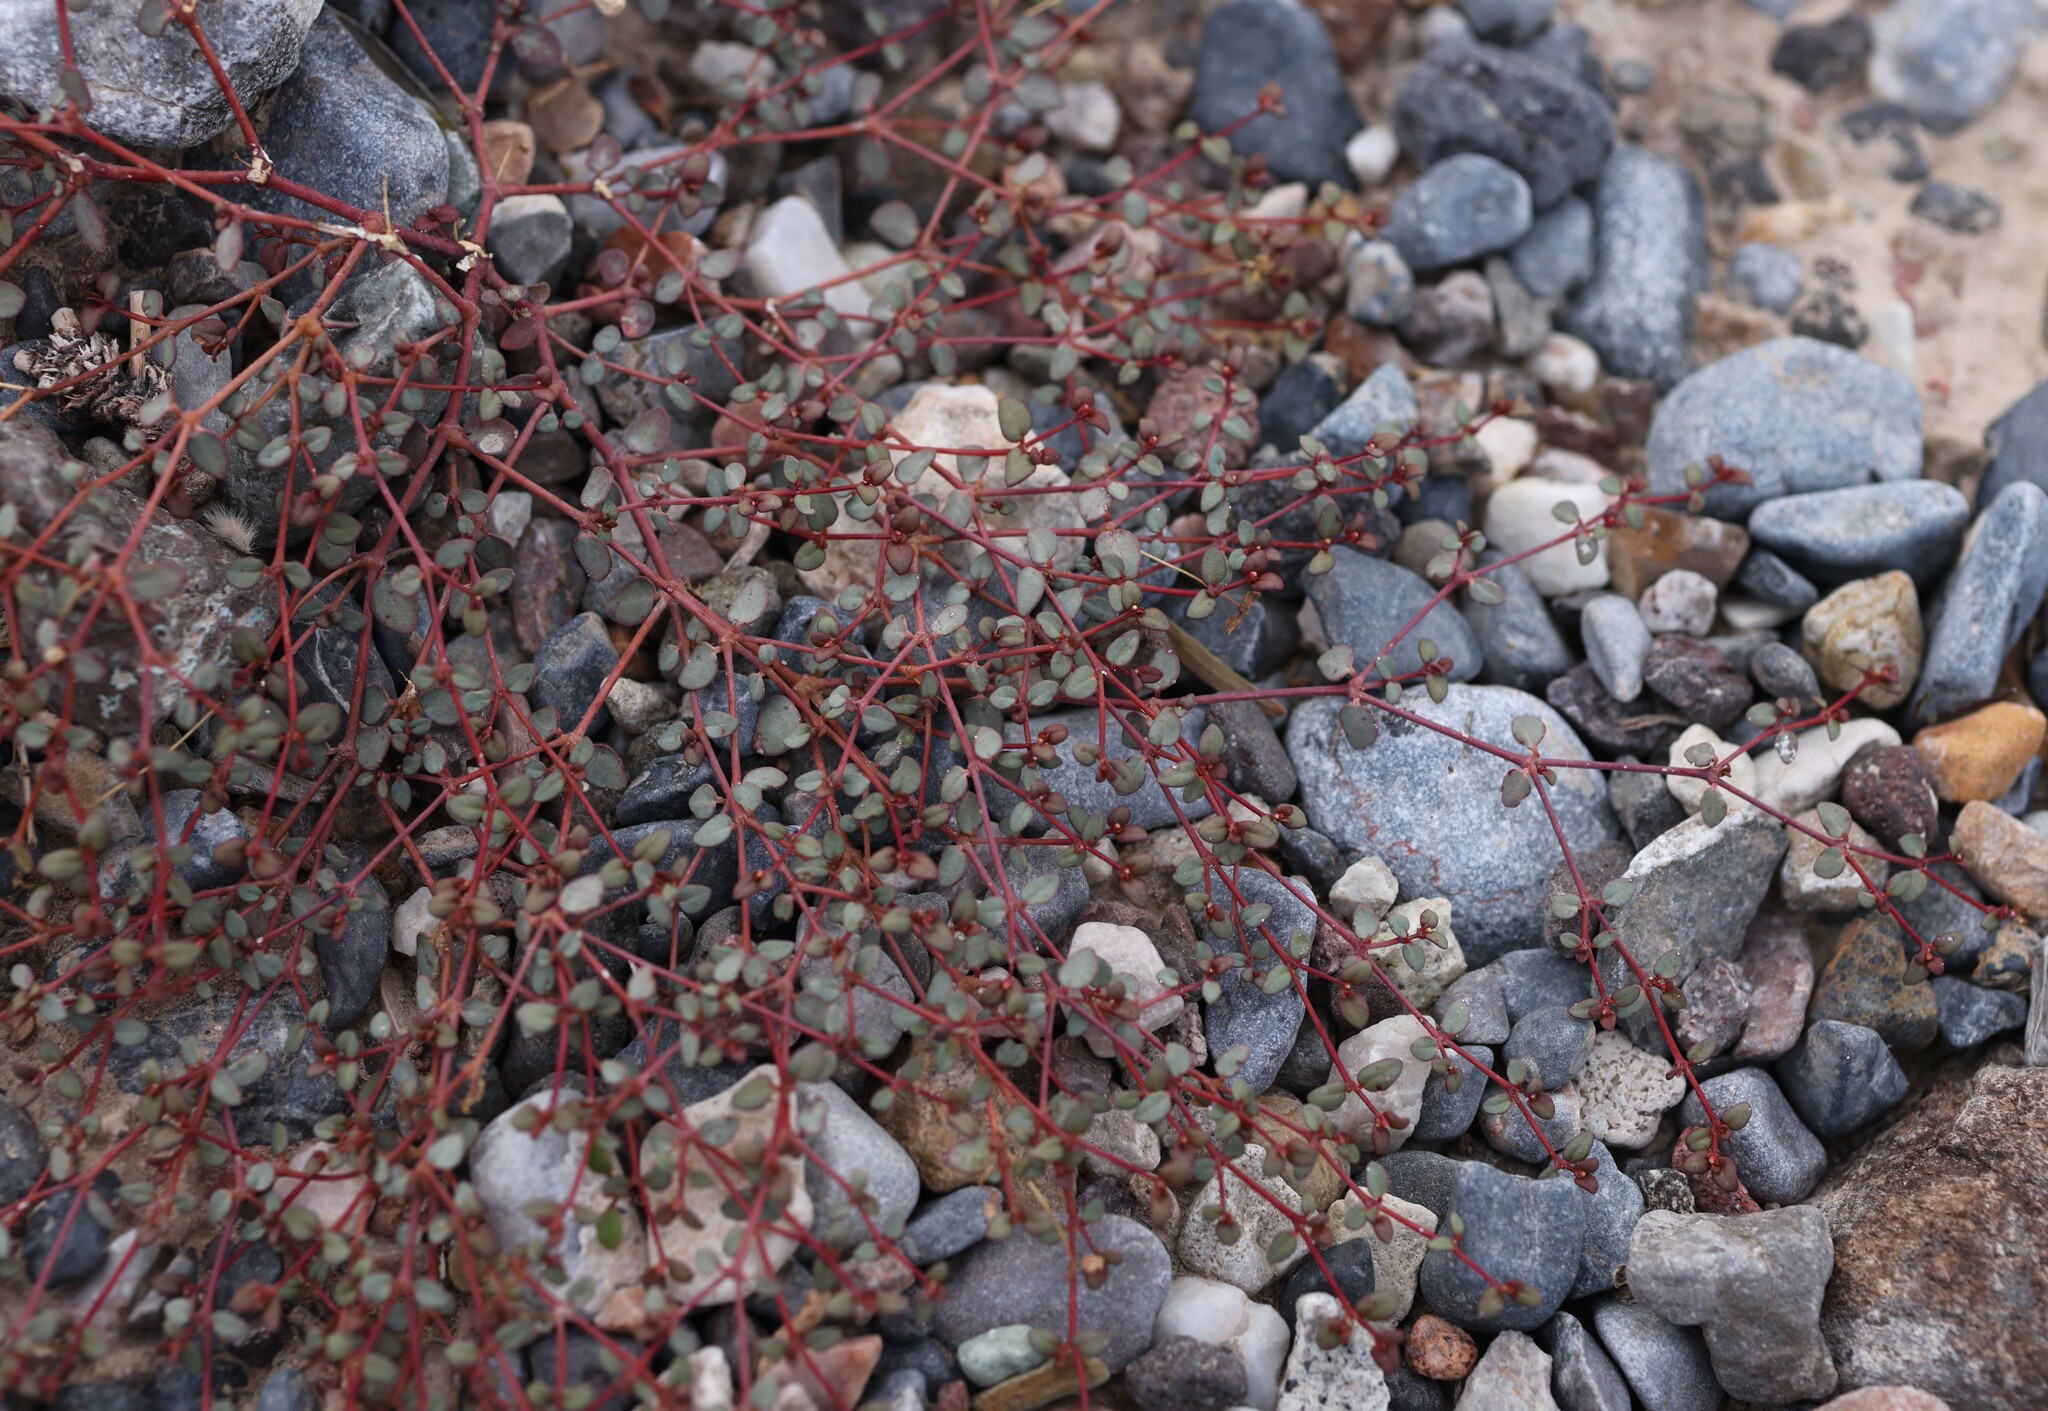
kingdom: Plantae
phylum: Tracheophyta
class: Magnoliopsida
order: Malpighiales
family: Euphorbiaceae
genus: Euphorbia
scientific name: Euphorbia parishii
